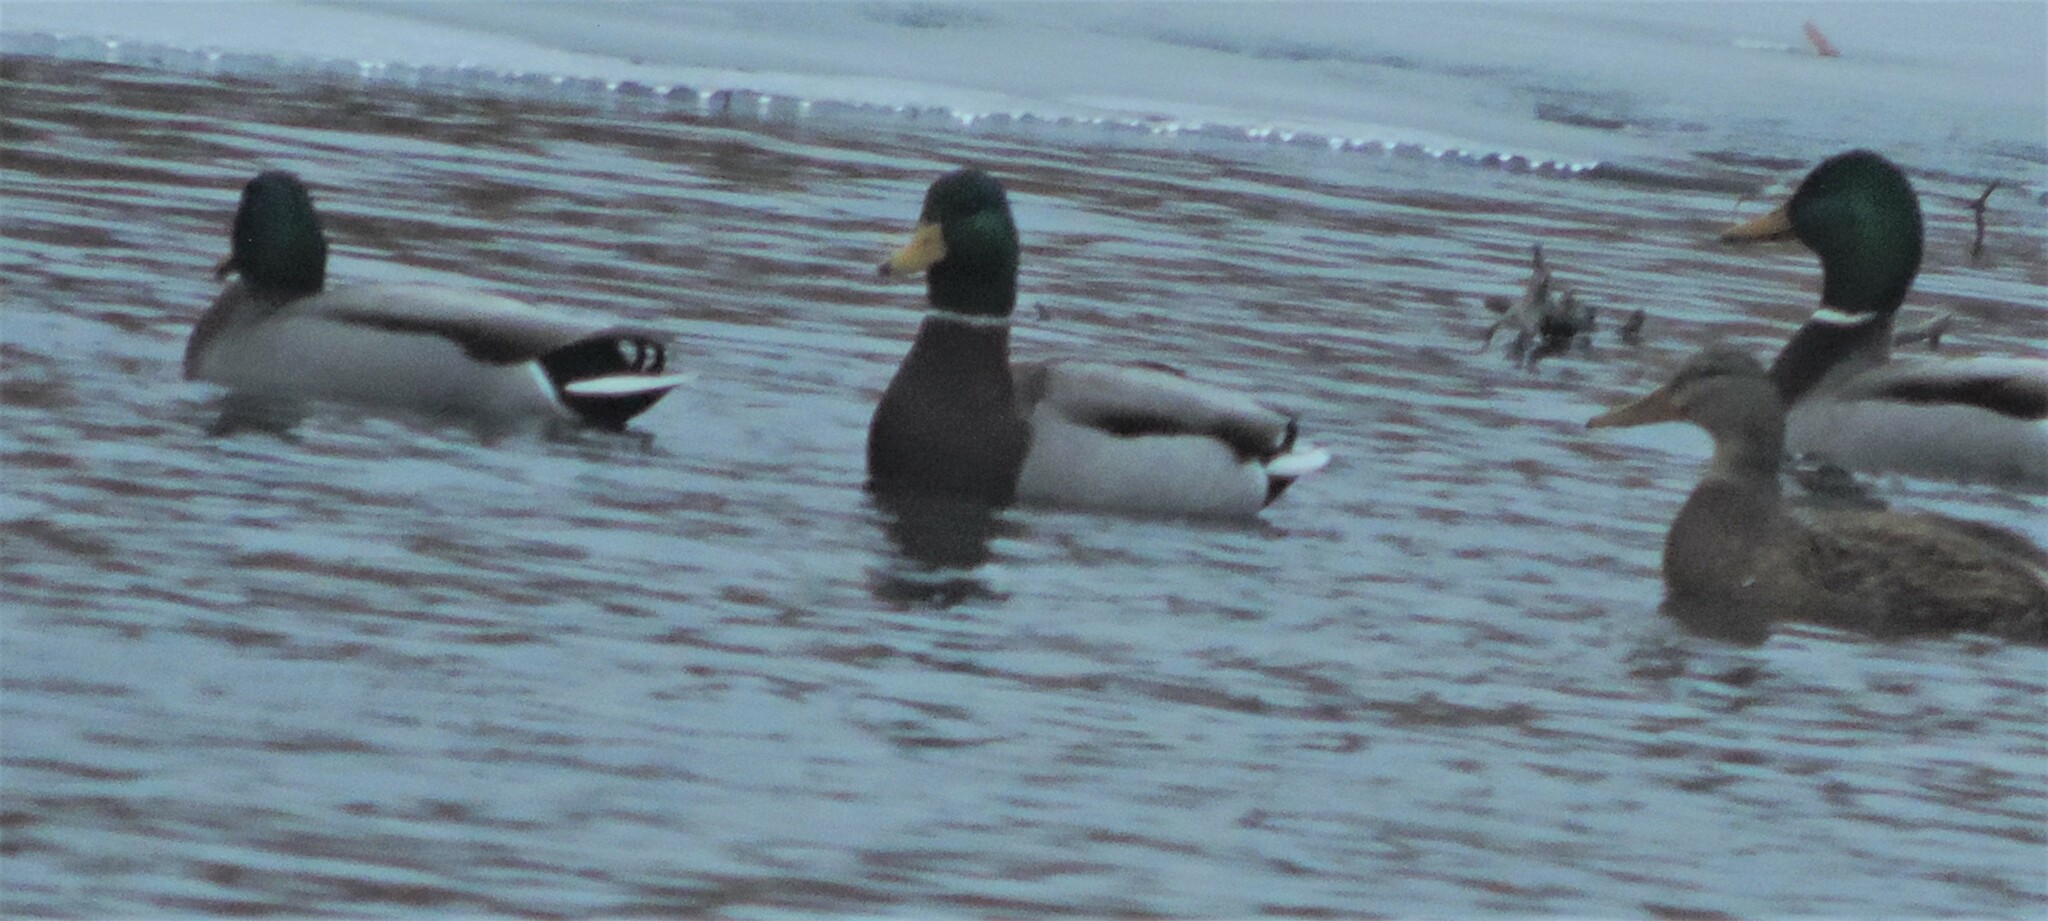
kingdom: Animalia
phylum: Chordata
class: Aves
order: Anseriformes
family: Anatidae
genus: Anas
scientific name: Anas platyrhynchos
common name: Mallard
